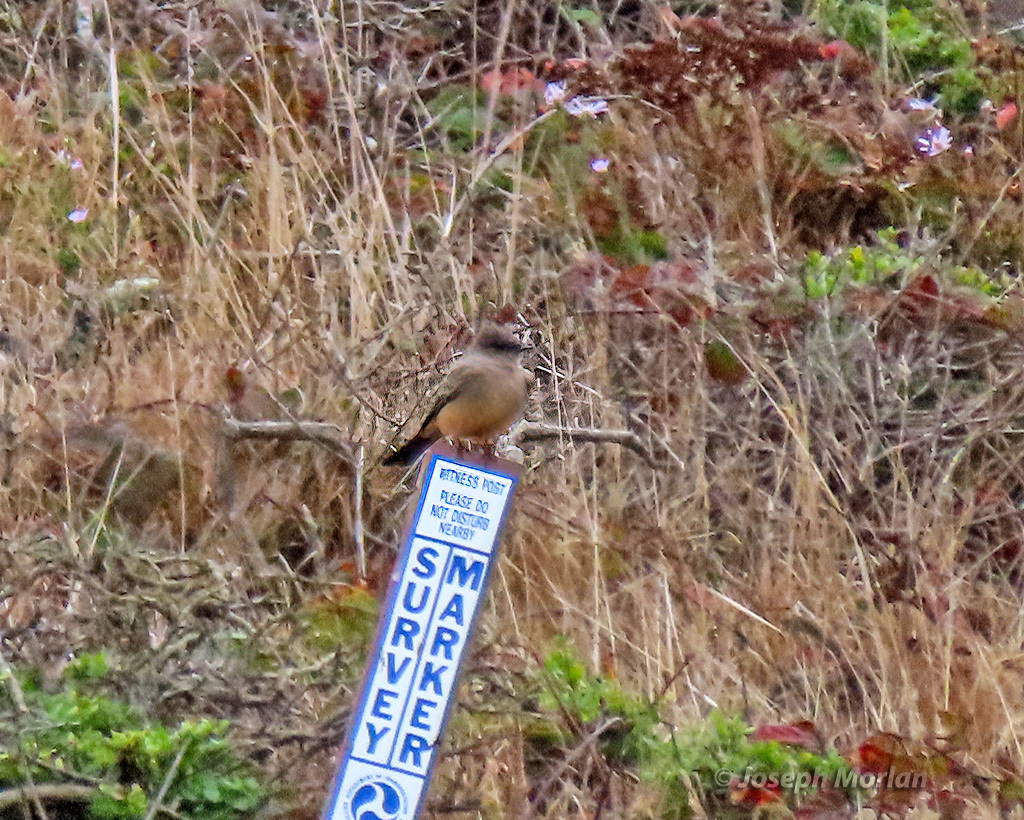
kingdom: Animalia
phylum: Chordata
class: Aves
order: Passeriformes
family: Tyrannidae
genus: Sayornis
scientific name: Sayornis saya
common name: Say's phoebe
